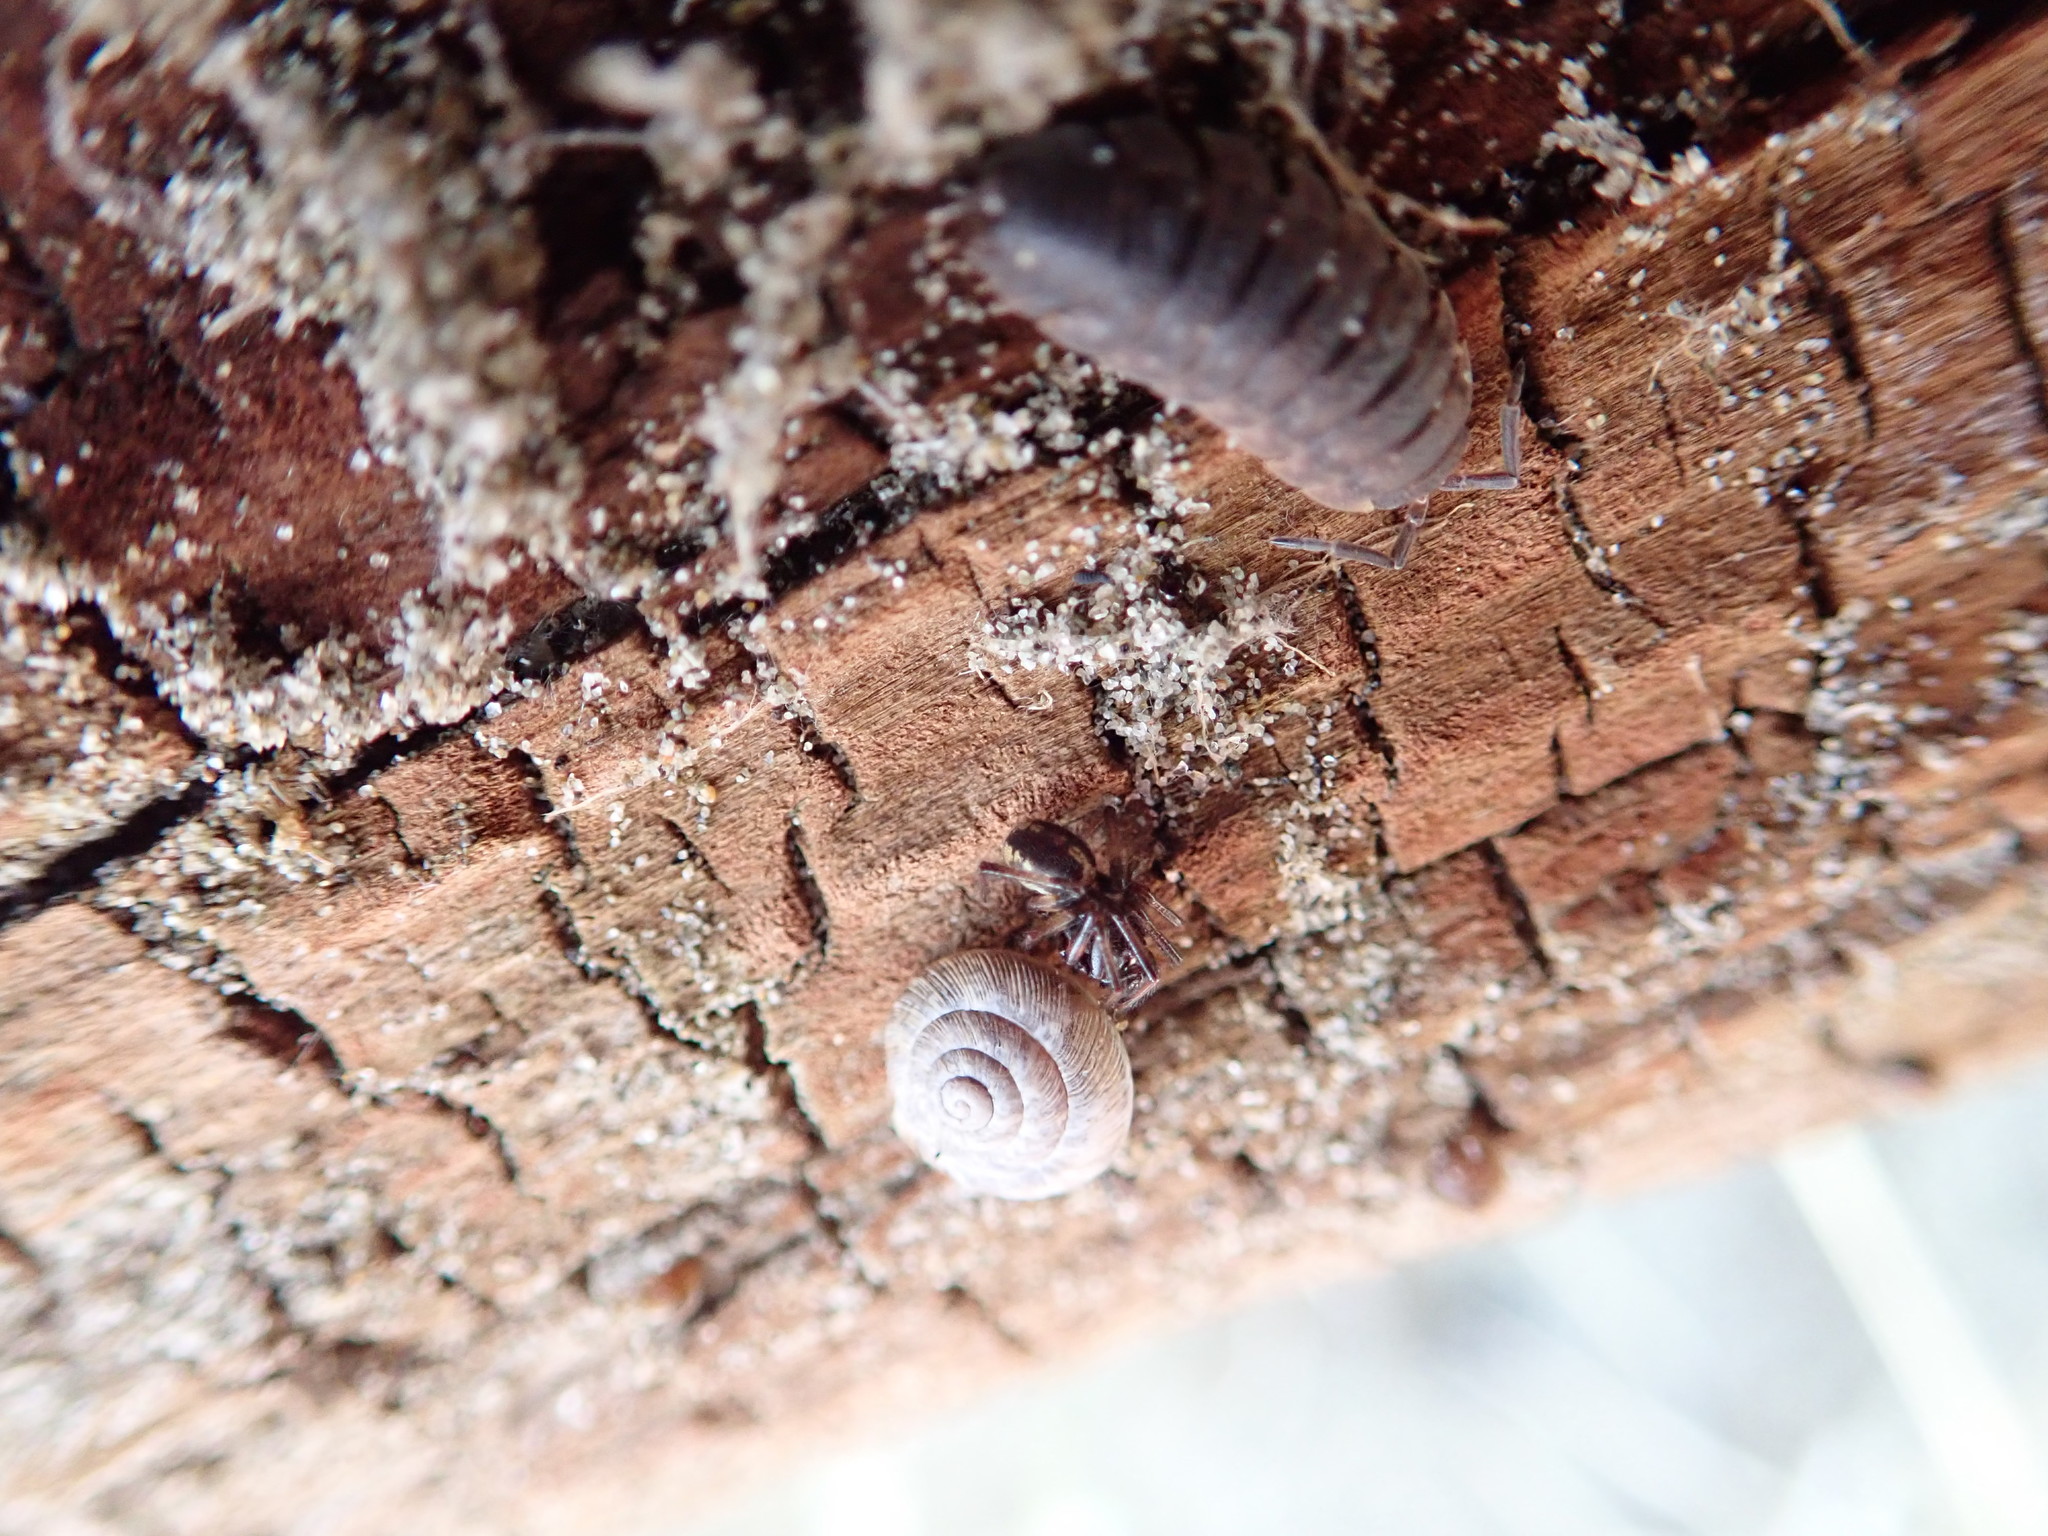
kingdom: Animalia
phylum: Mollusca
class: Gastropoda
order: Stylommatophora
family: Geomitridae
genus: Xeroplexa
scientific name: Xeroplexa intersecta
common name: Wrinkled snail
